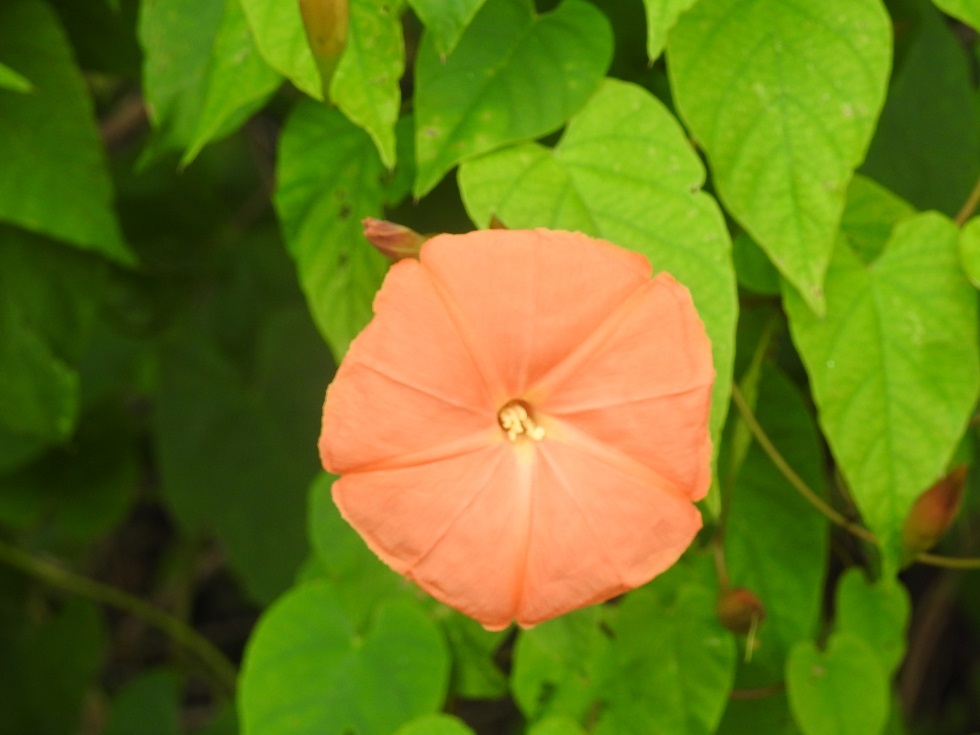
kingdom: Plantae
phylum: Tracheophyta
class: Magnoliopsida
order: Solanales
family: Convolvulaceae
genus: Operculina
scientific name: Operculina pteripes
